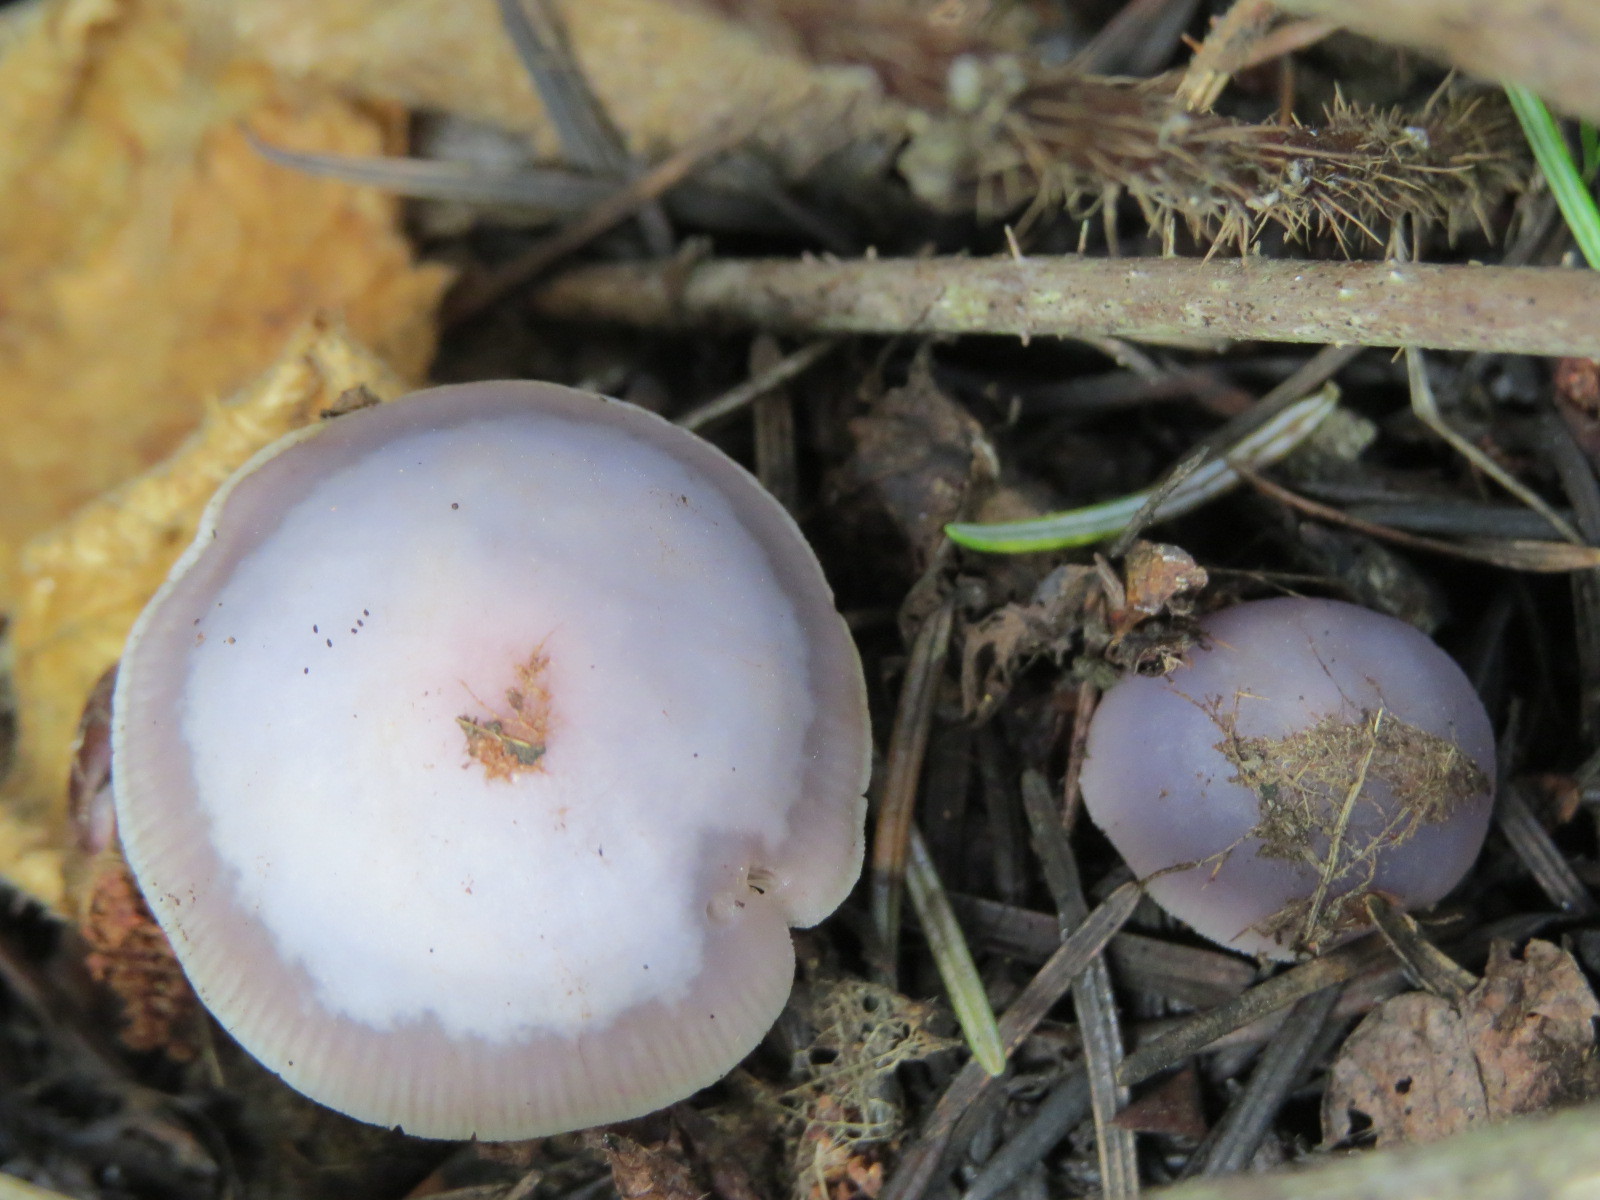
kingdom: Fungi
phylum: Basidiomycota
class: Agaricomycetes
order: Agaricales
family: Mycenaceae
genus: Mycena
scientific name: Mycena pura
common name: Lilac bonnet
